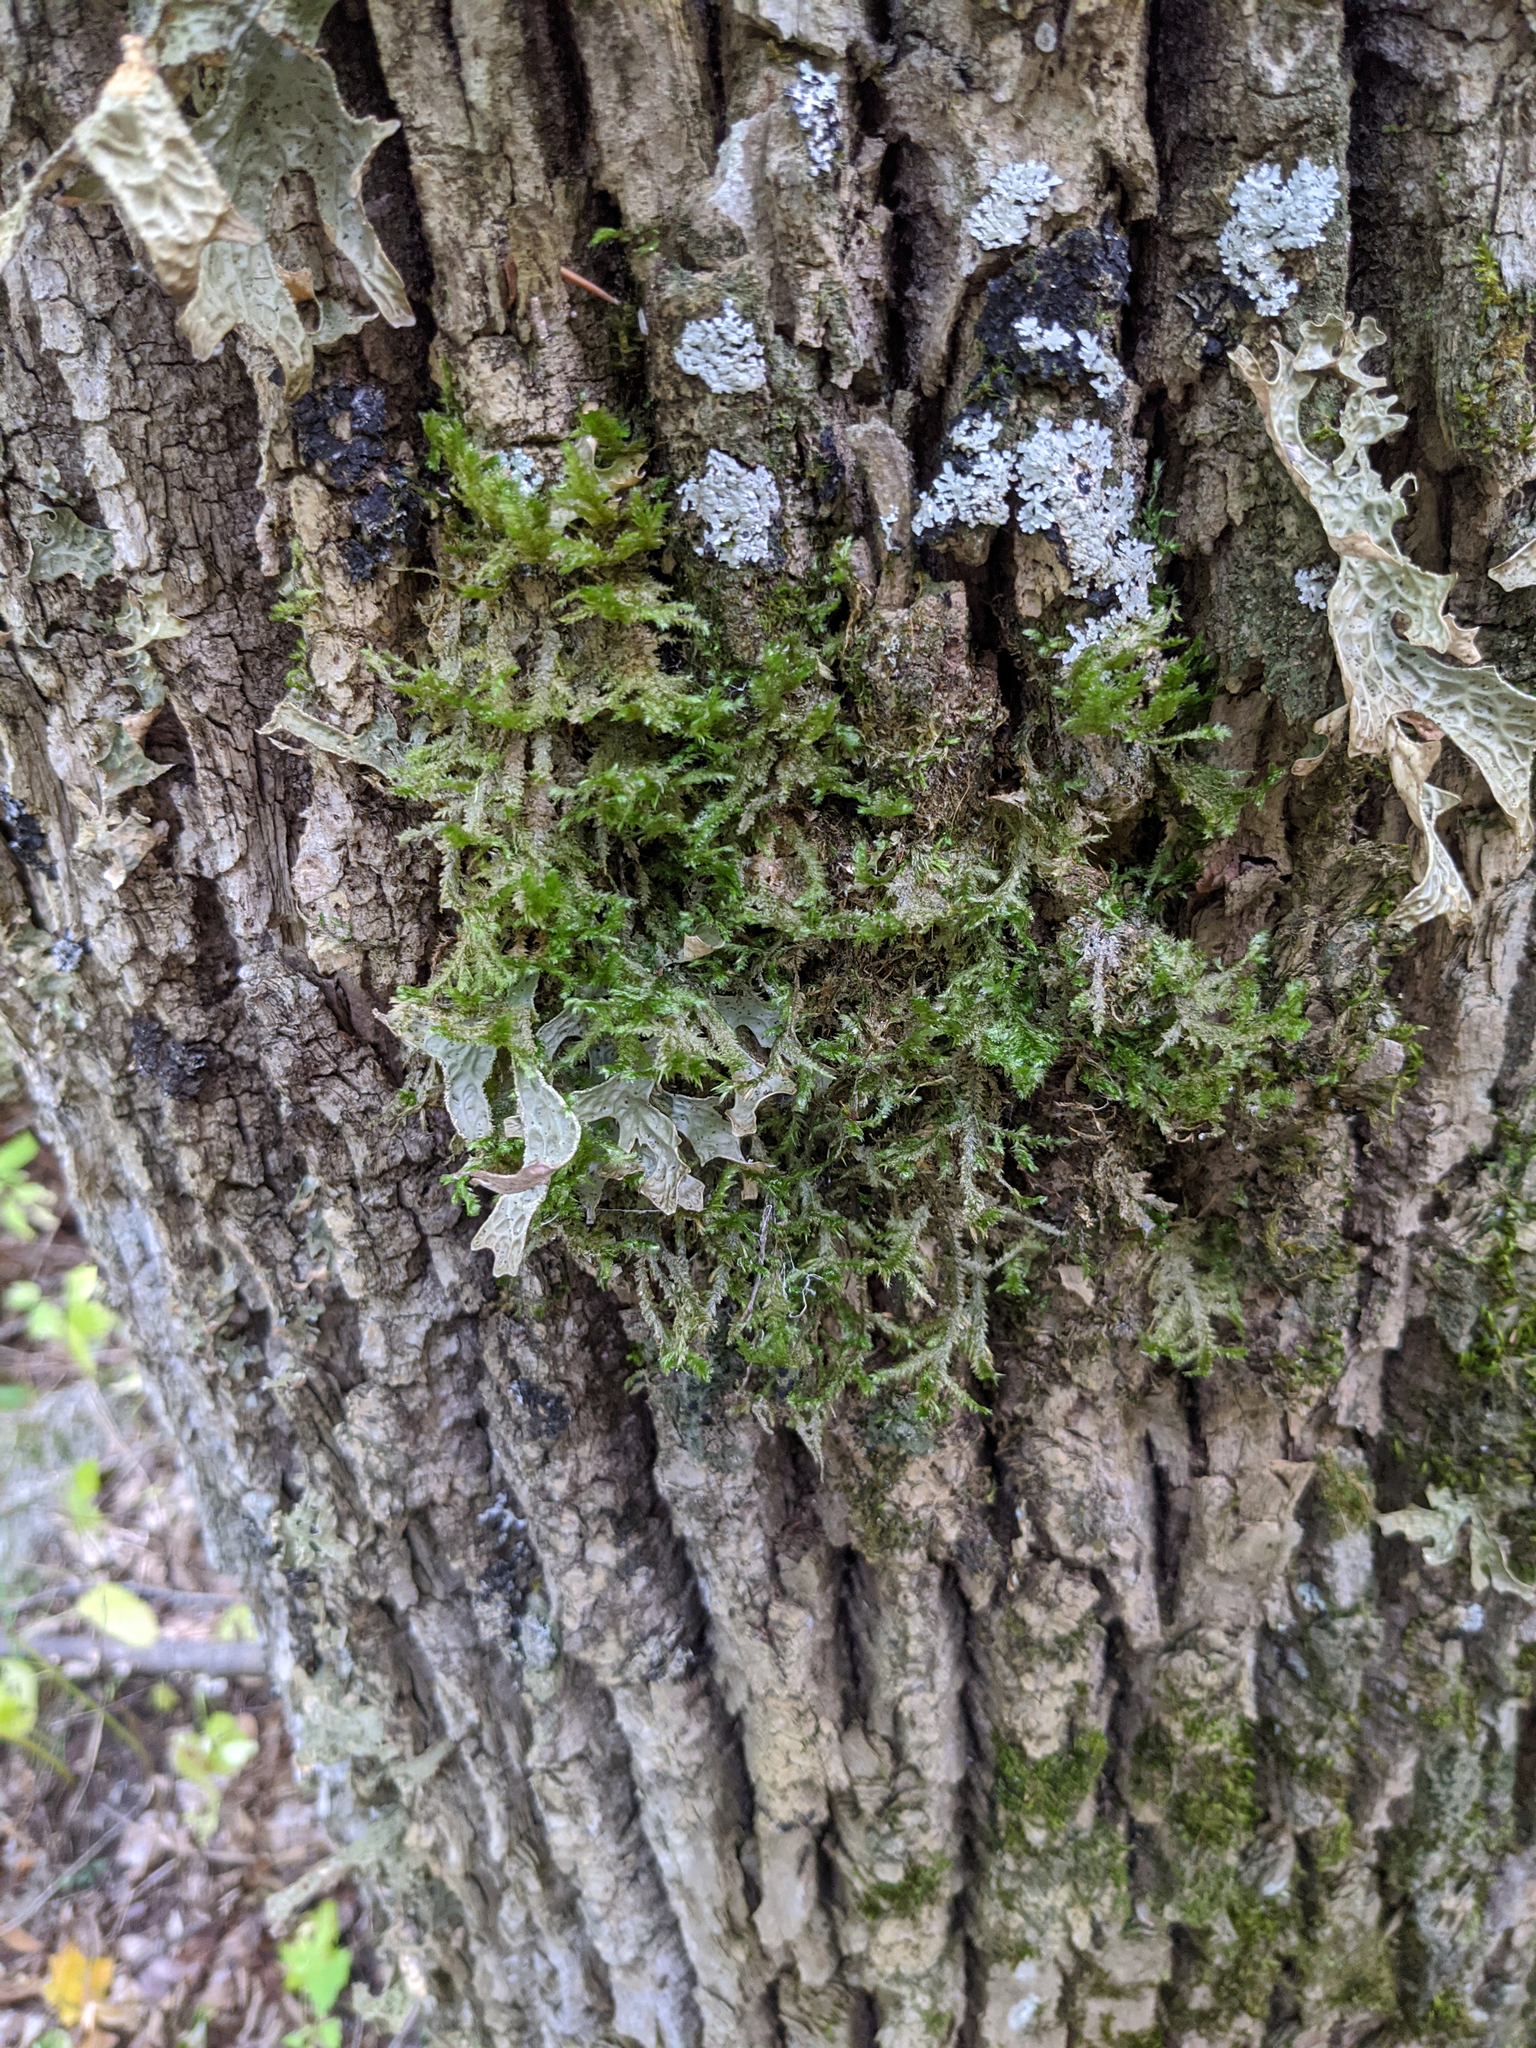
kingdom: Plantae
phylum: Bryophyta
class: Bryopsida
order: Hypnales
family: Neckeraceae
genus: Neckera
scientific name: Neckera pennata
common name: Feathery neckera
